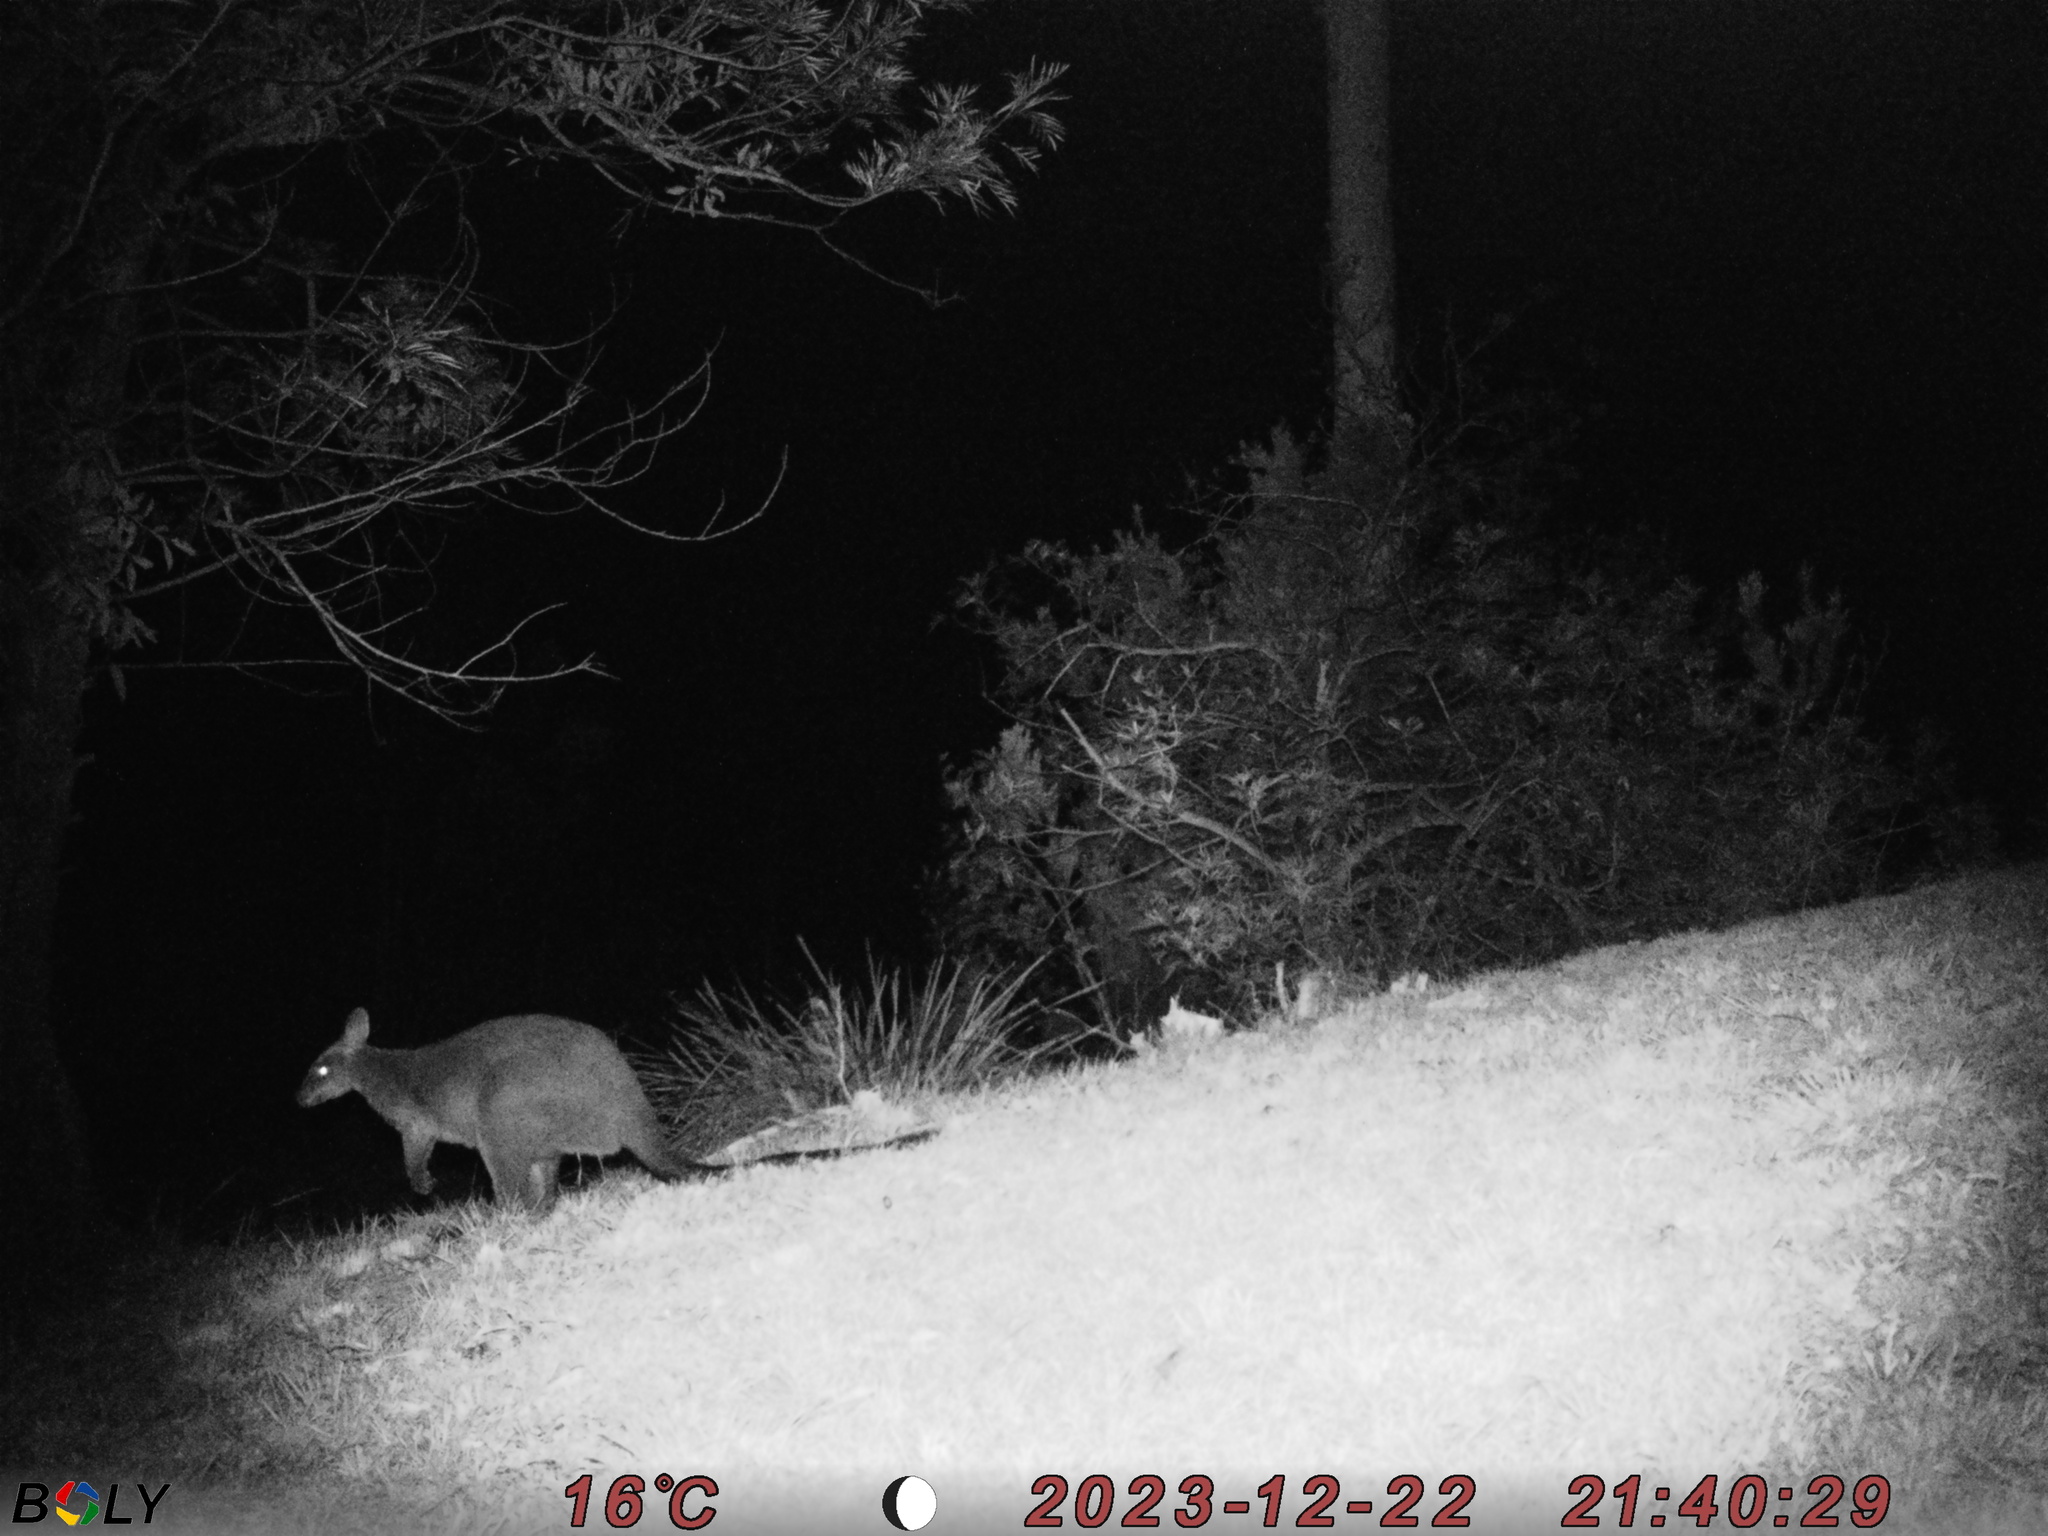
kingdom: Animalia
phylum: Chordata
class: Mammalia
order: Diprotodontia
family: Macropodidae
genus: Wallabia
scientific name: Wallabia bicolor
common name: Swamp wallaby
